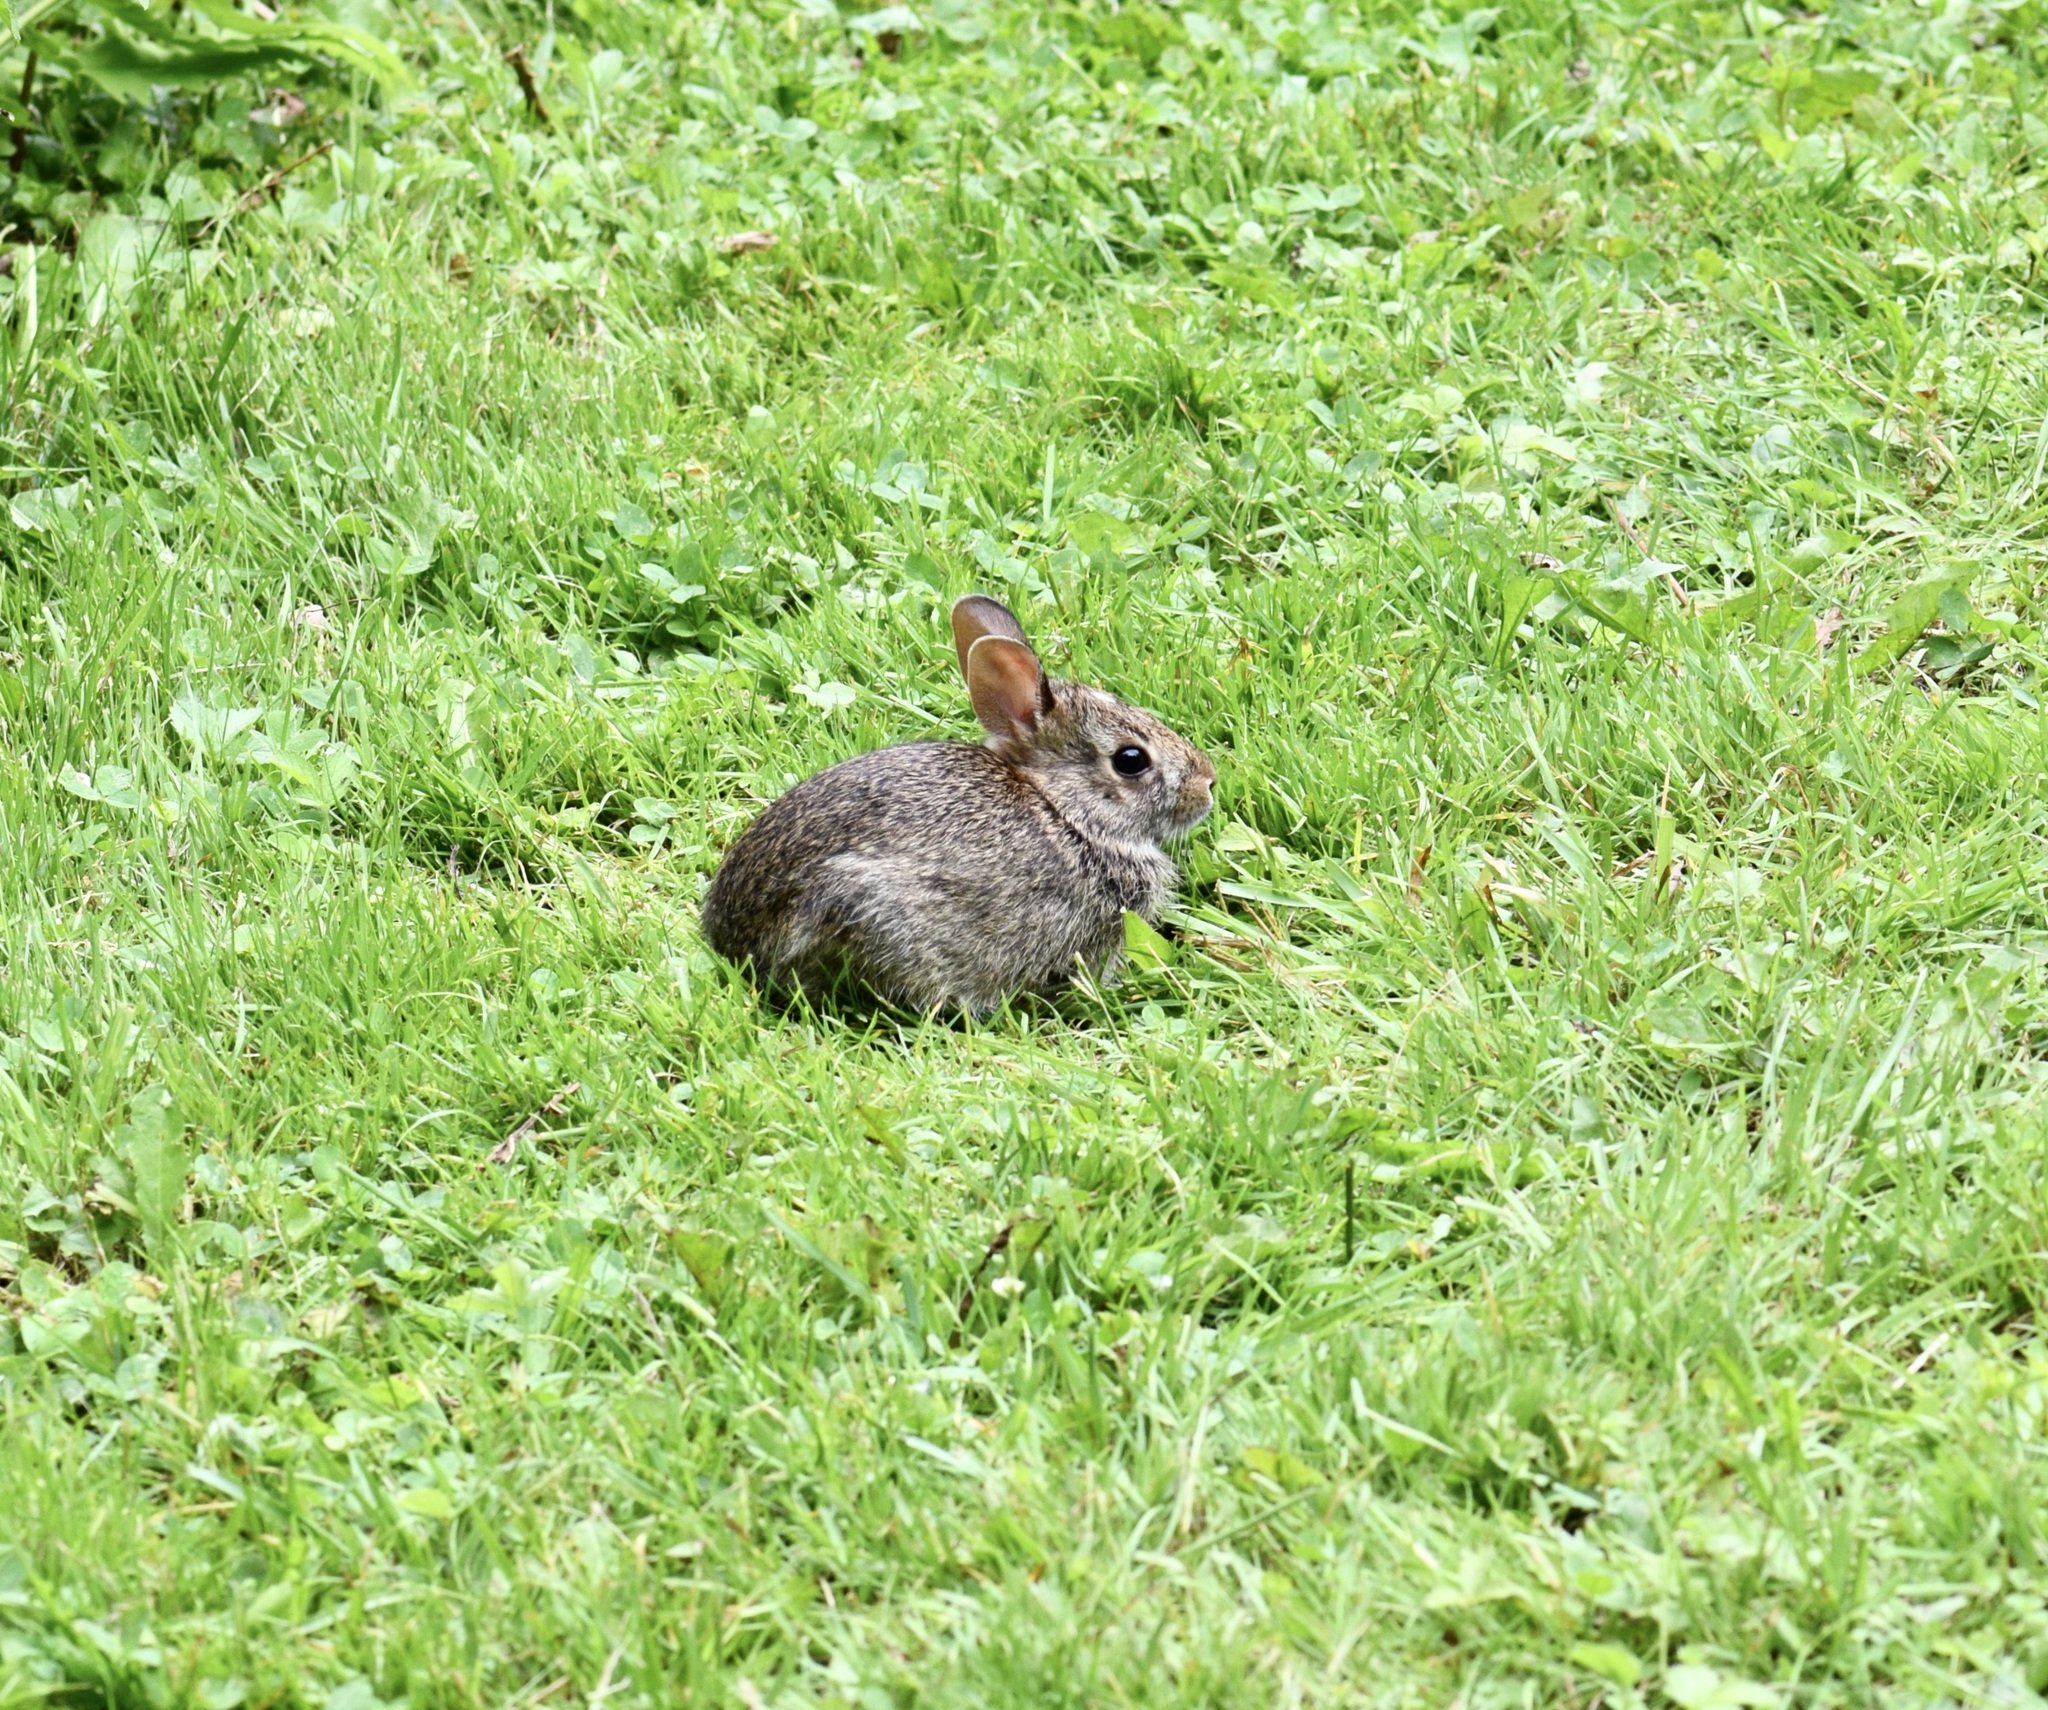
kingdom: Animalia
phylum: Chordata
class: Mammalia
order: Lagomorpha
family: Leporidae
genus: Sylvilagus
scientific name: Sylvilagus floridanus
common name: Eastern cottontail
